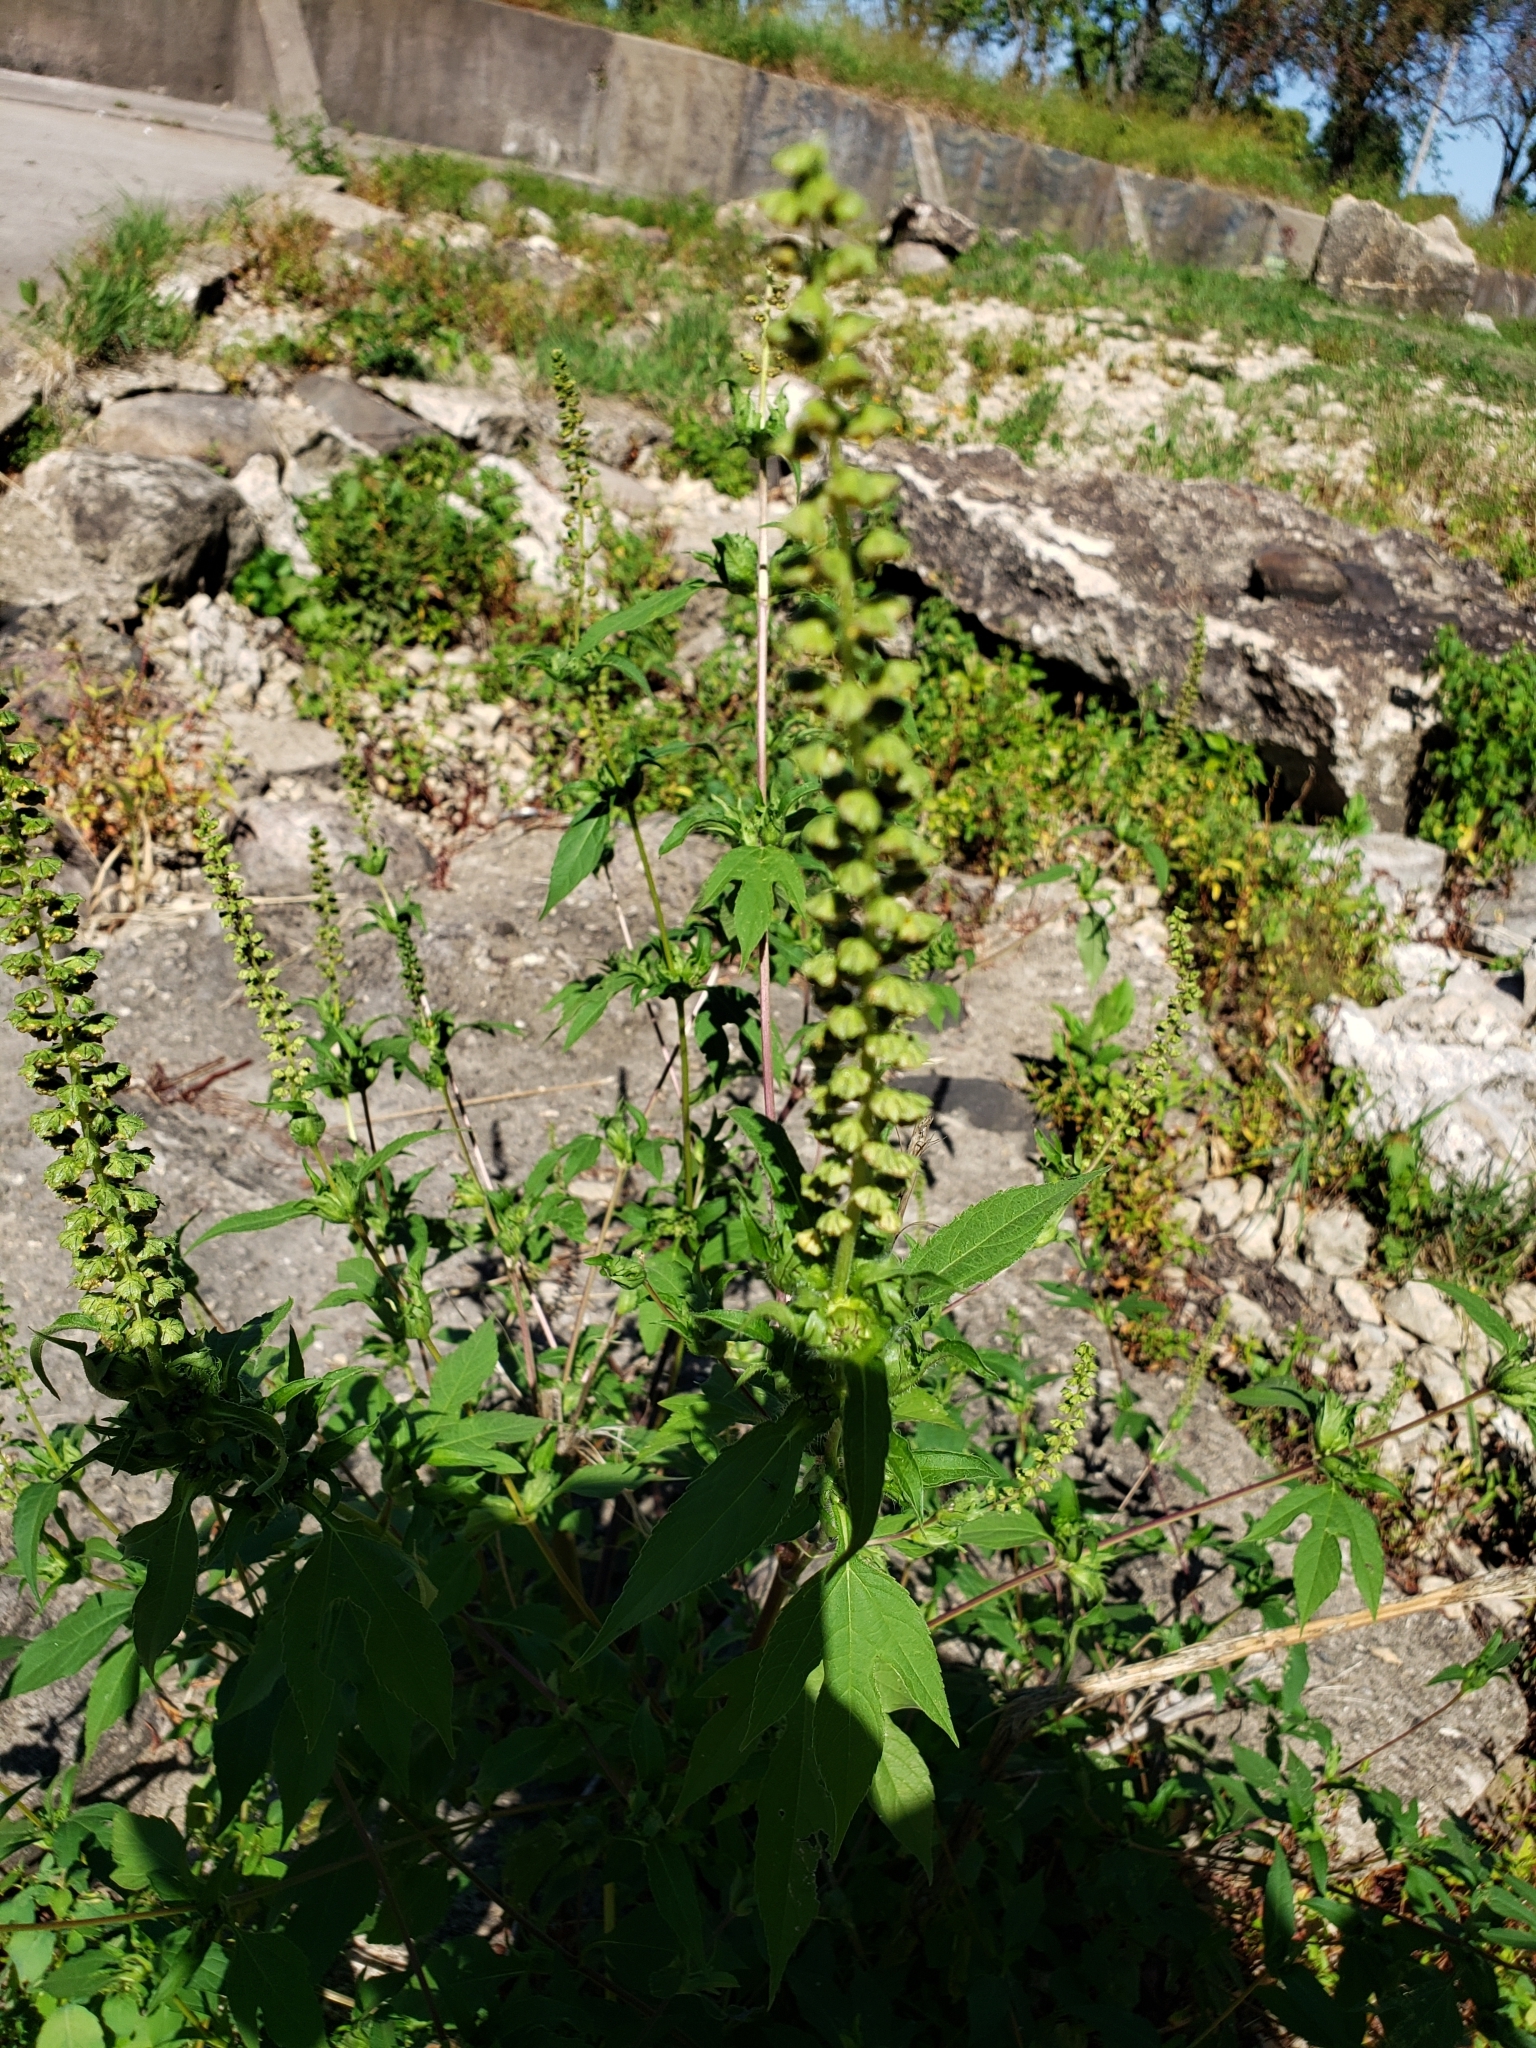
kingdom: Plantae
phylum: Tracheophyta
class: Magnoliopsida
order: Asterales
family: Asteraceae
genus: Ambrosia
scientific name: Ambrosia trifida
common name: Giant ragweed
